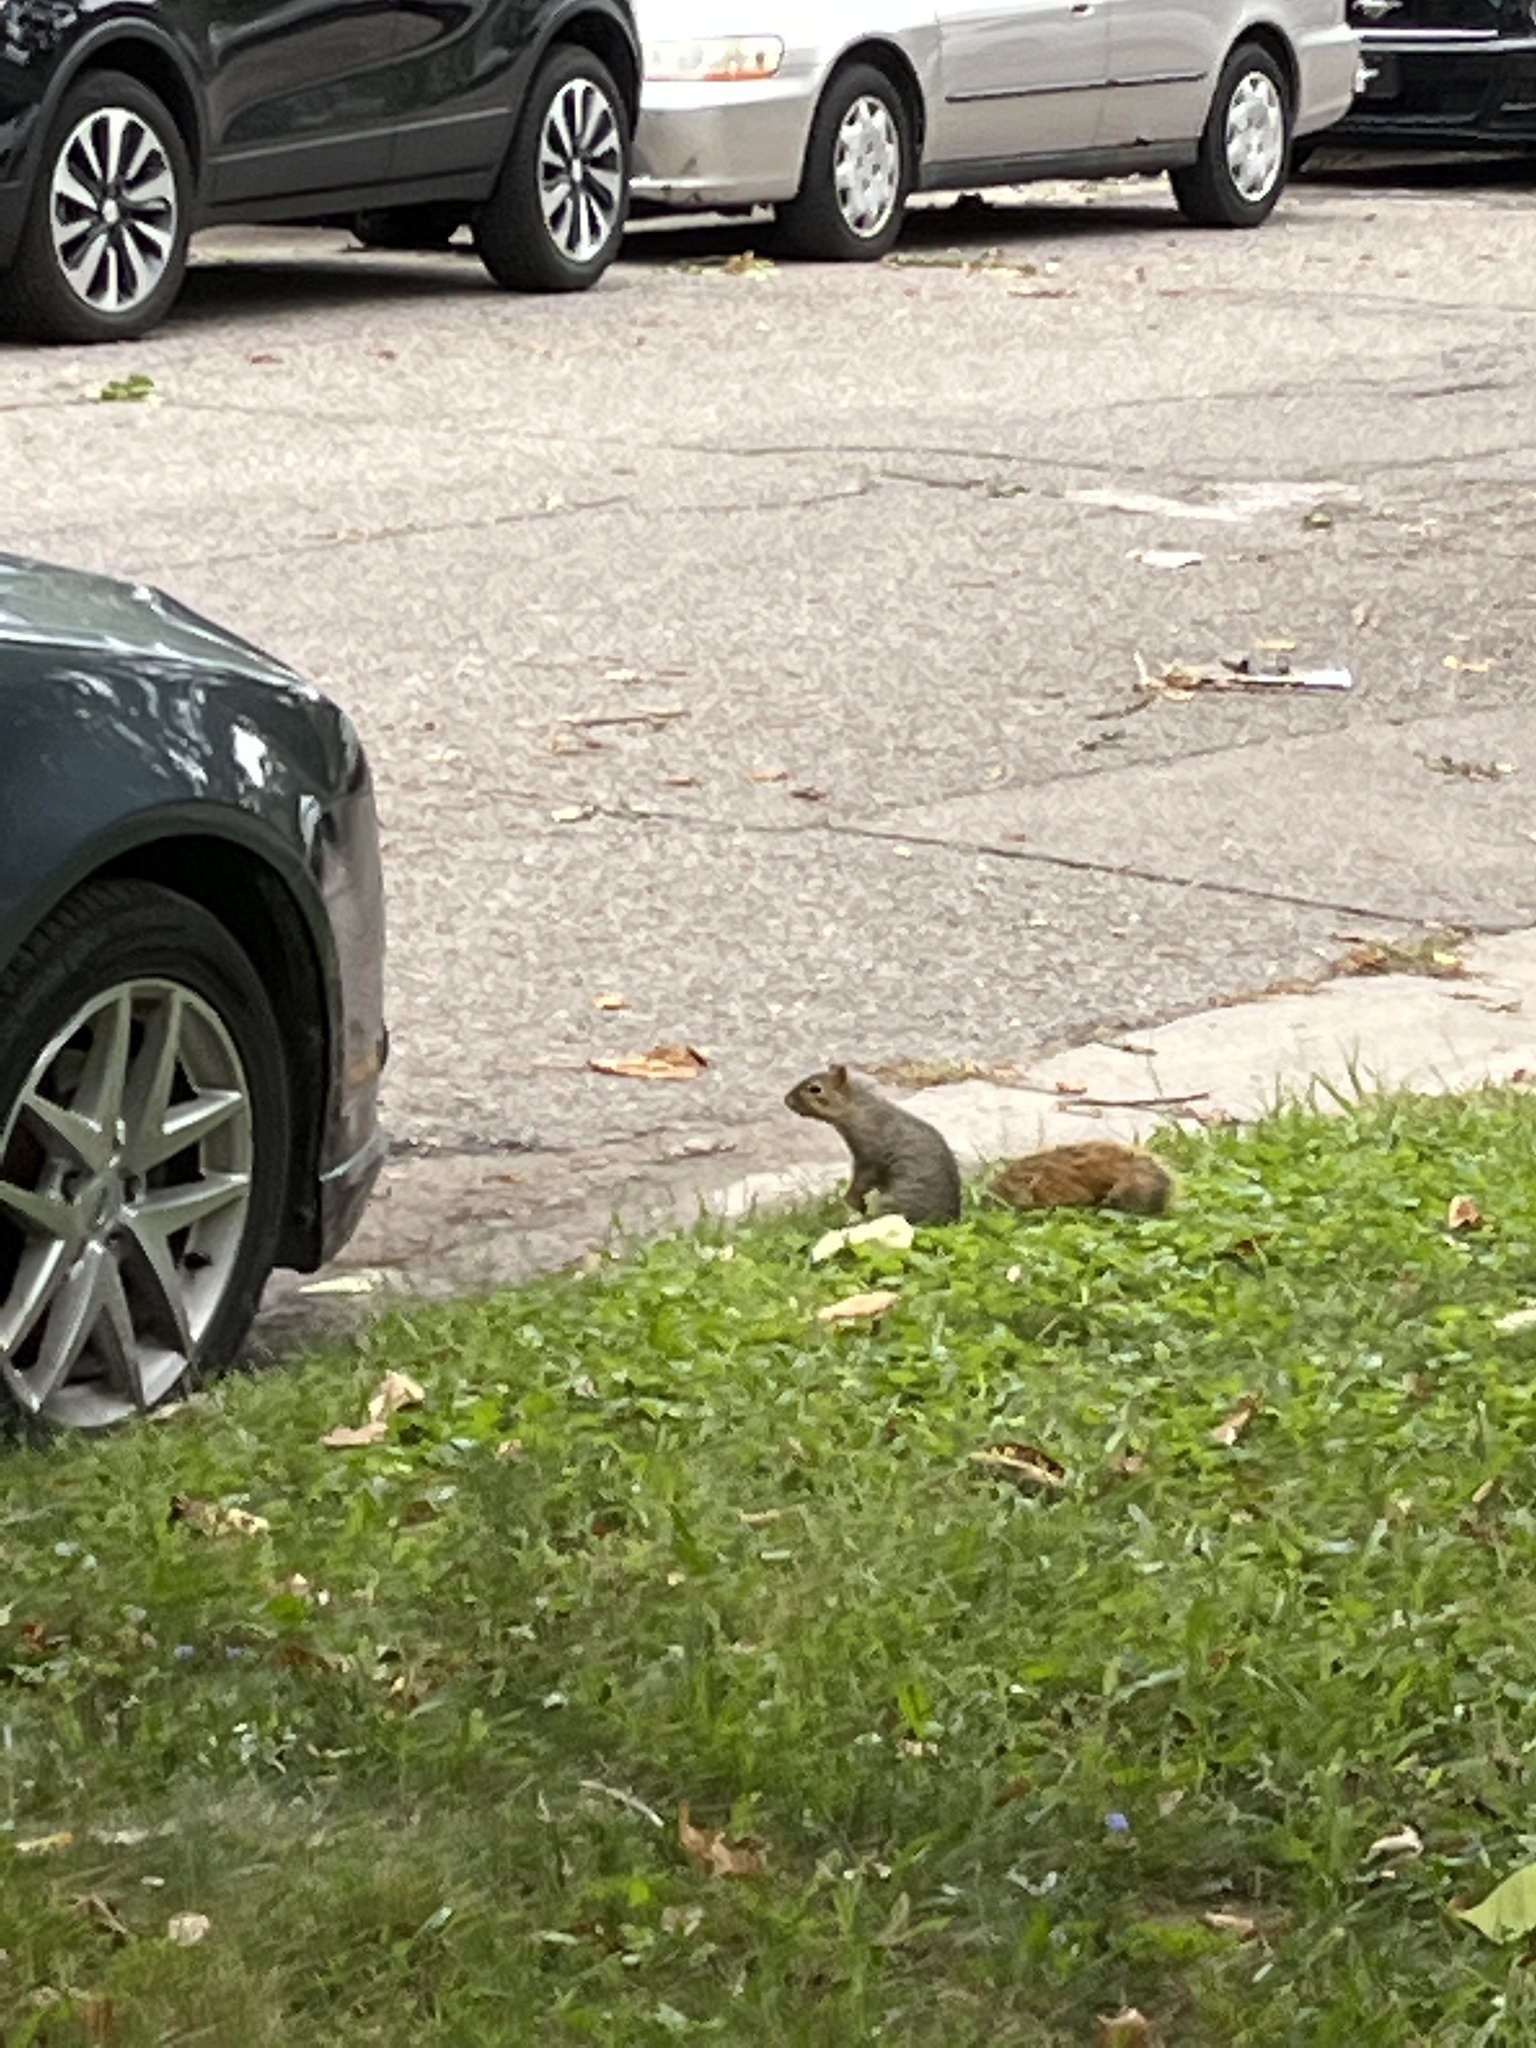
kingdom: Animalia
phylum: Chordata
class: Mammalia
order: Rodentia
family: Sciuridae
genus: Sciurus
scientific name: Sciurus niger
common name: Fox squirrel
